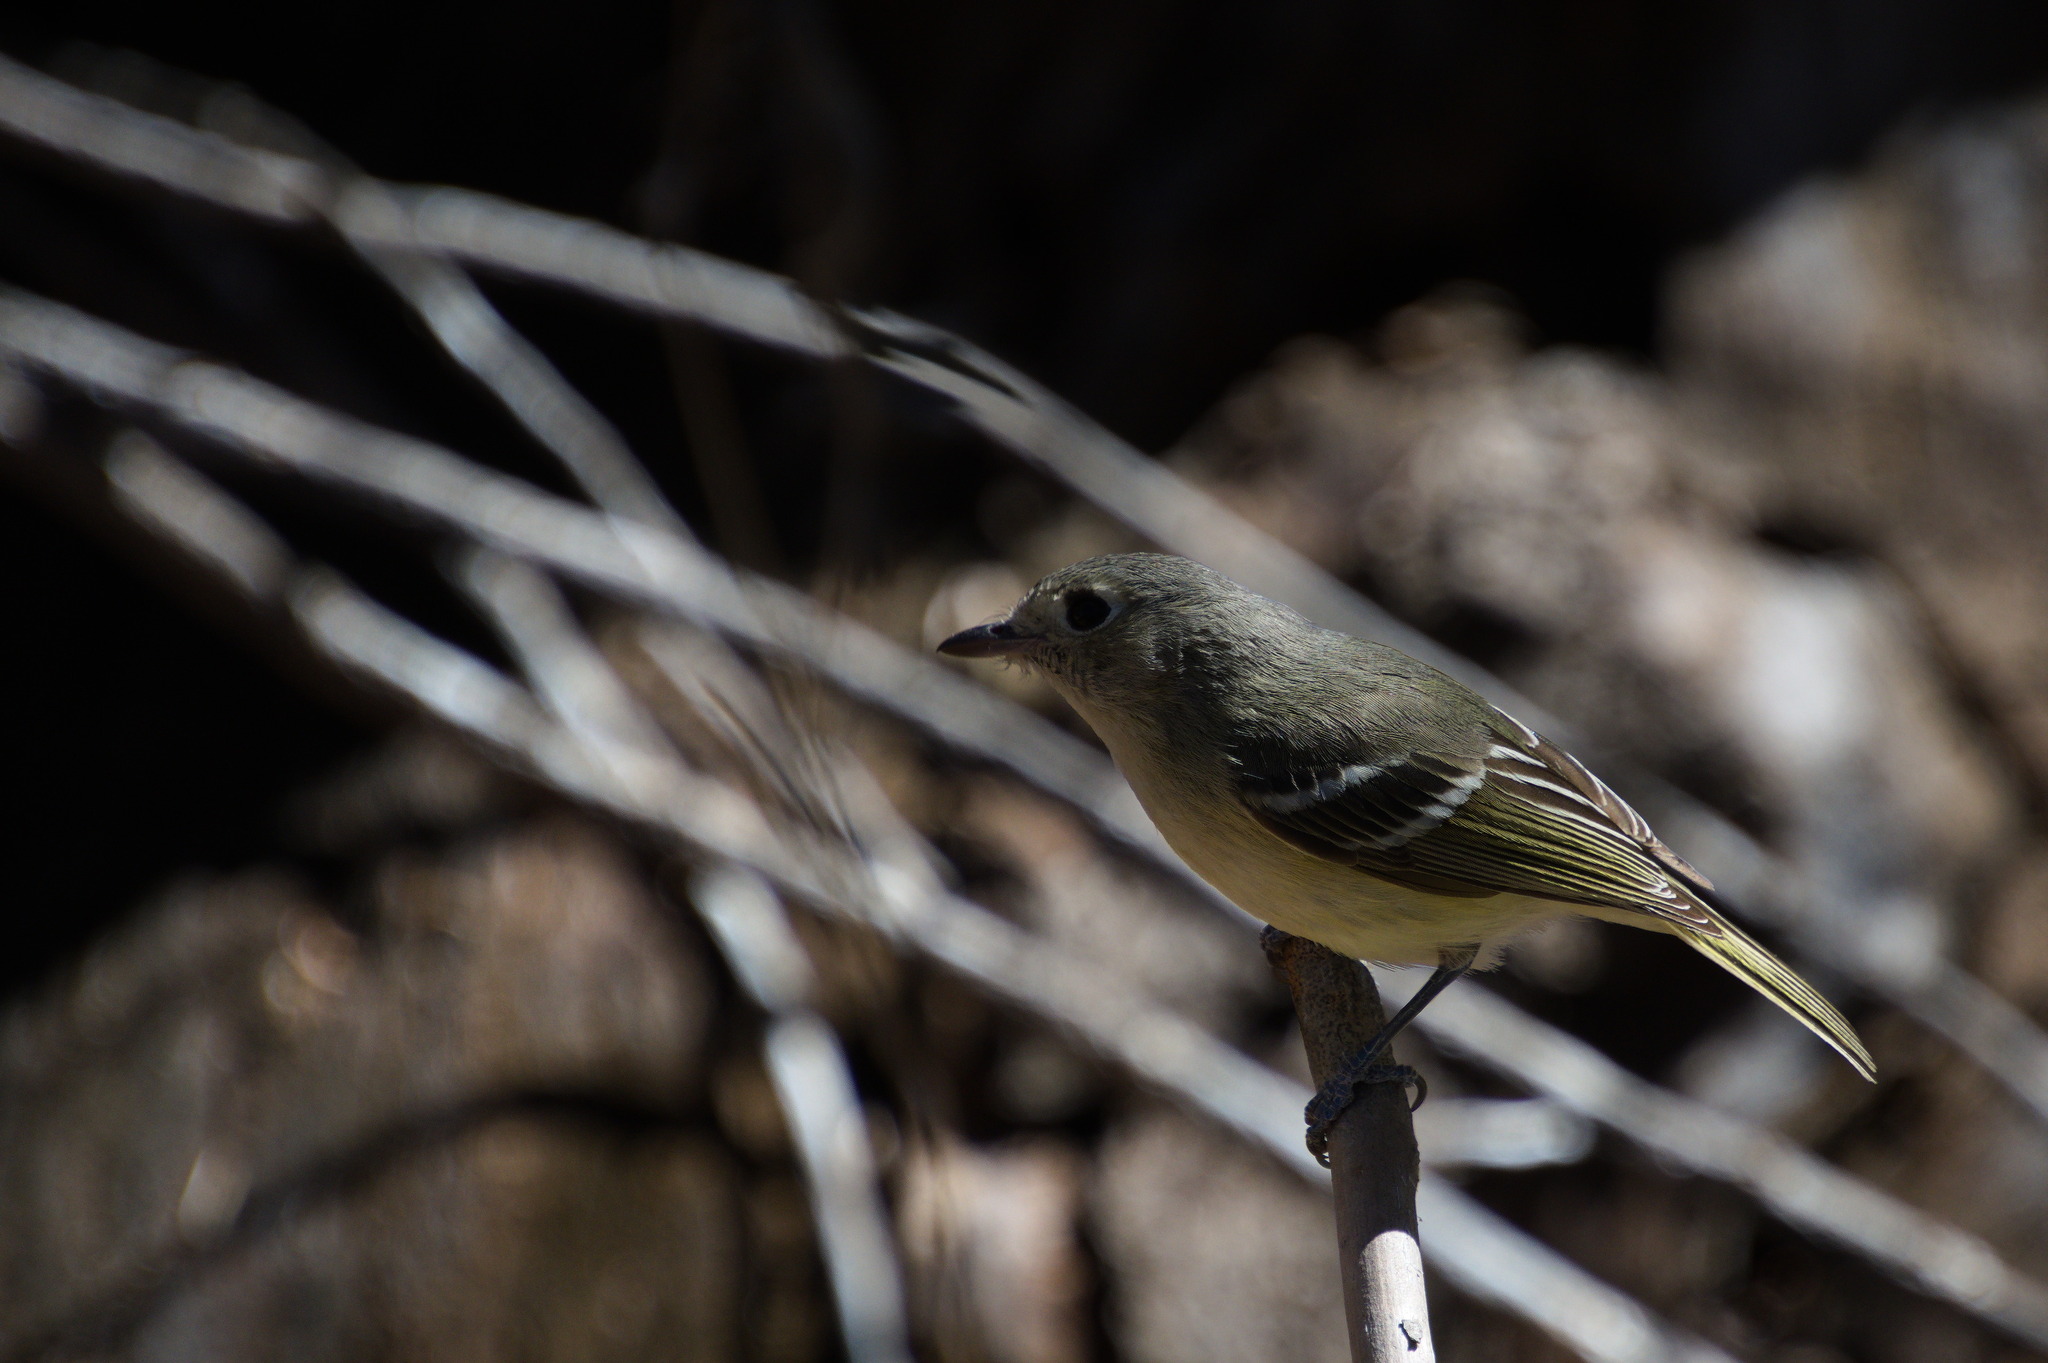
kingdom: Animalia
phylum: Chordata
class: Aves
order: Passeriformes
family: Vireonidae
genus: Vireo
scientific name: Vireo huttoni
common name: Hutton's vireo
